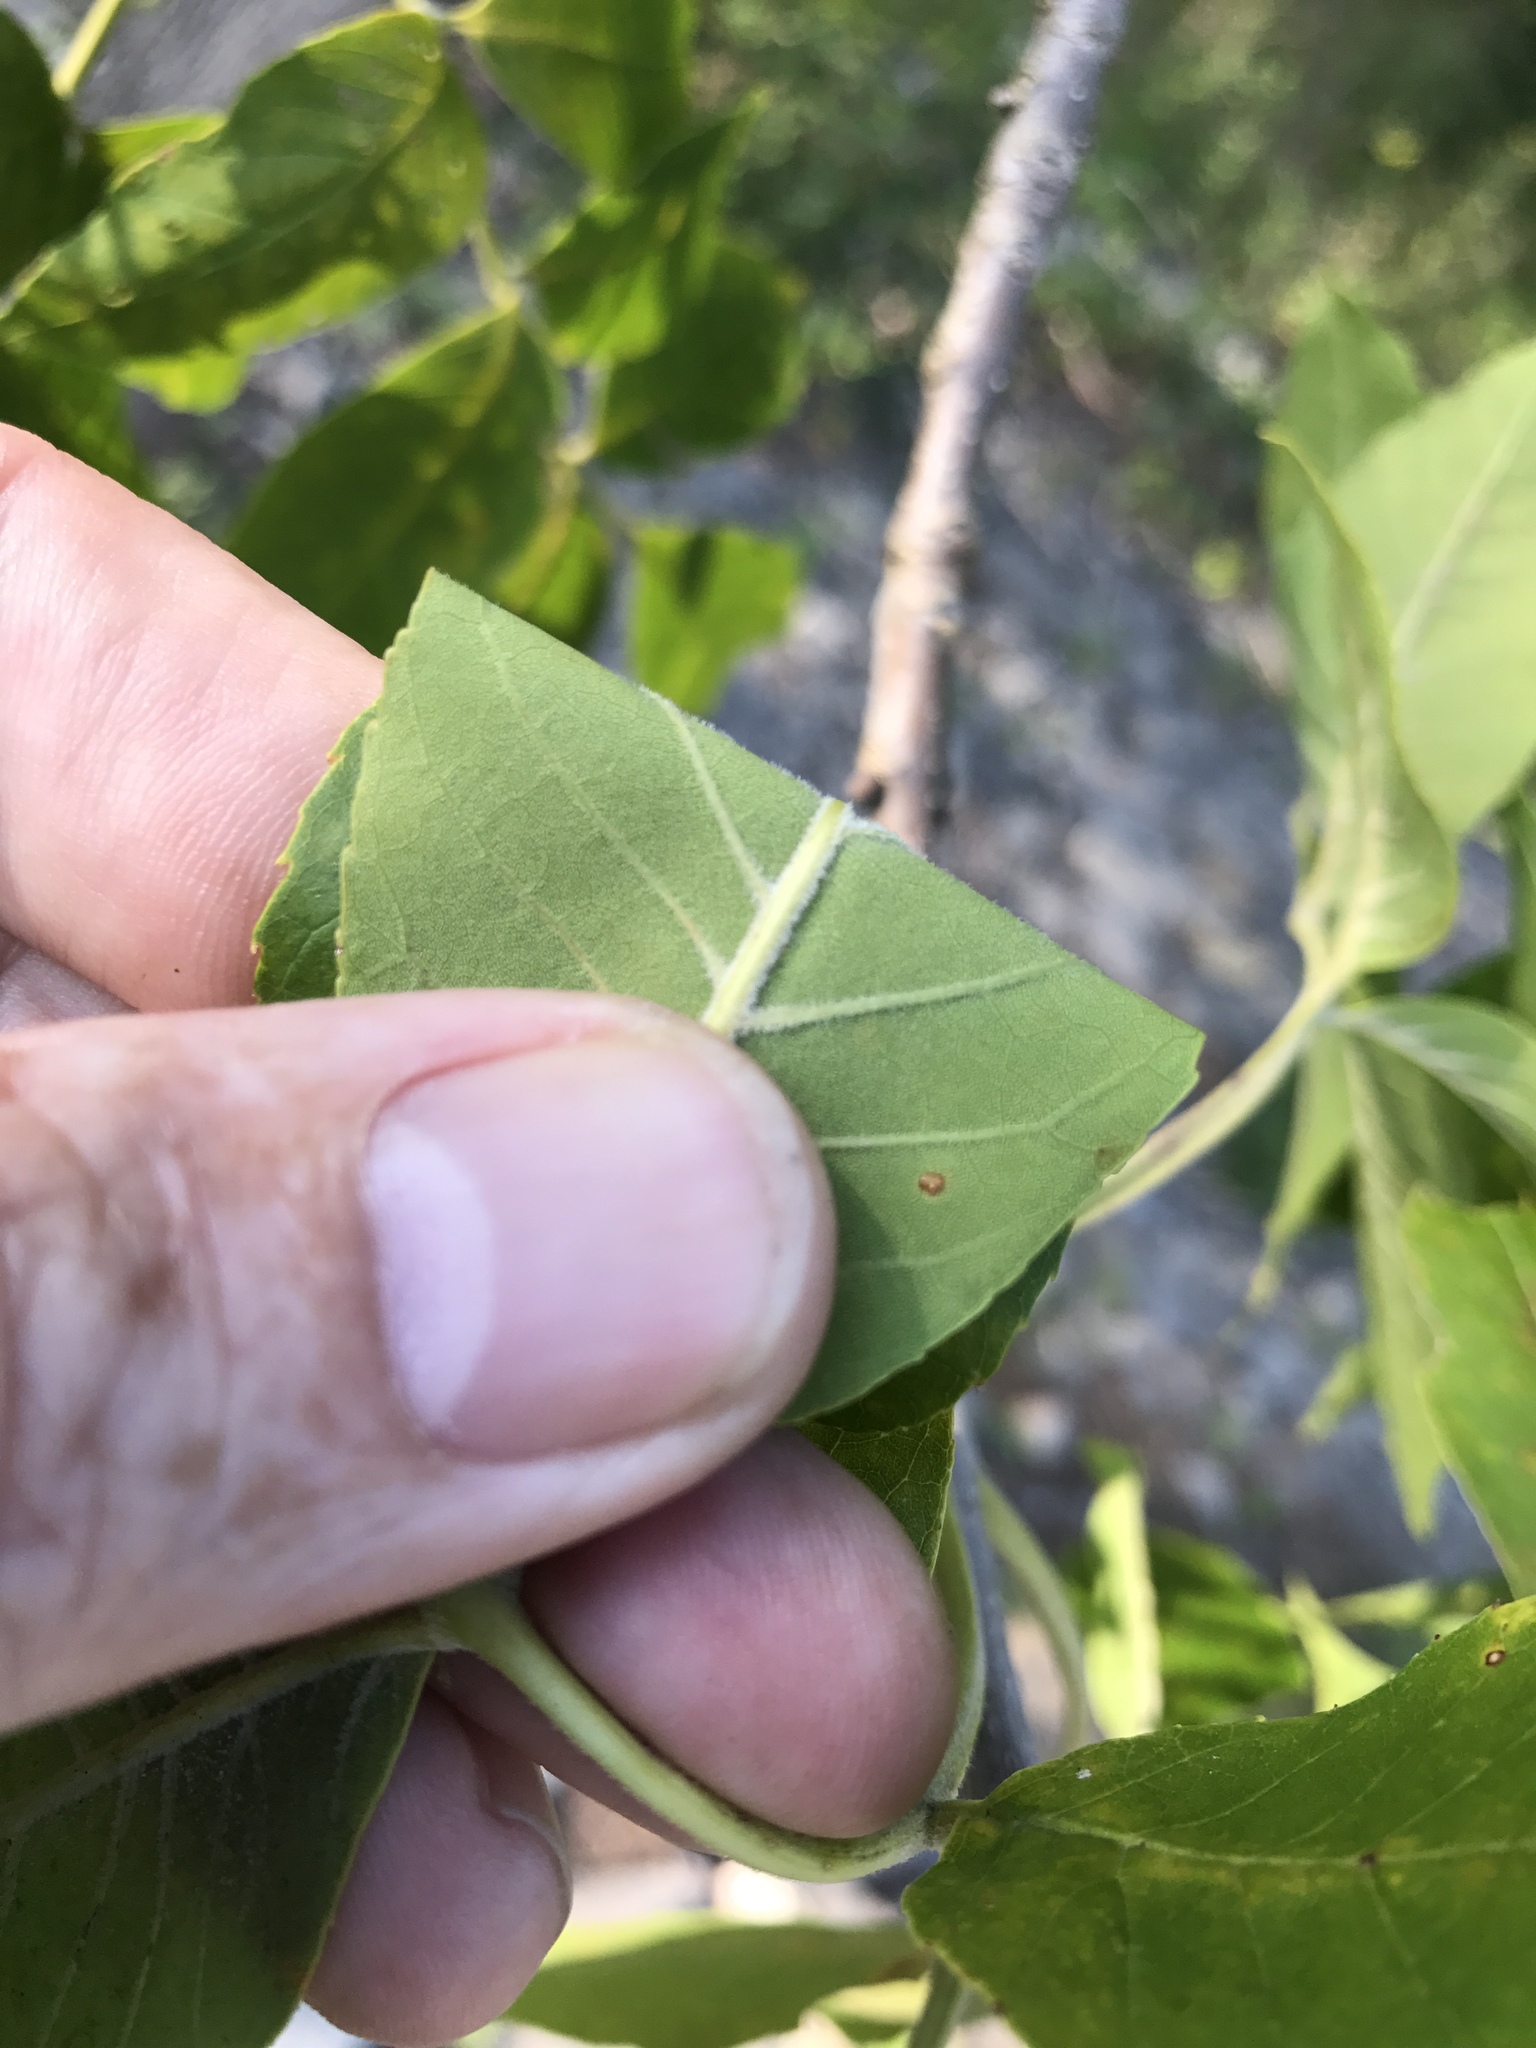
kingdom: Plantae
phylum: Tracheophyta
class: Magnoliopsida
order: Lamiales
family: Oleaceae
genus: Fraxinus
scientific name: Fraxinus pennsylvanica
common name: Green ash
